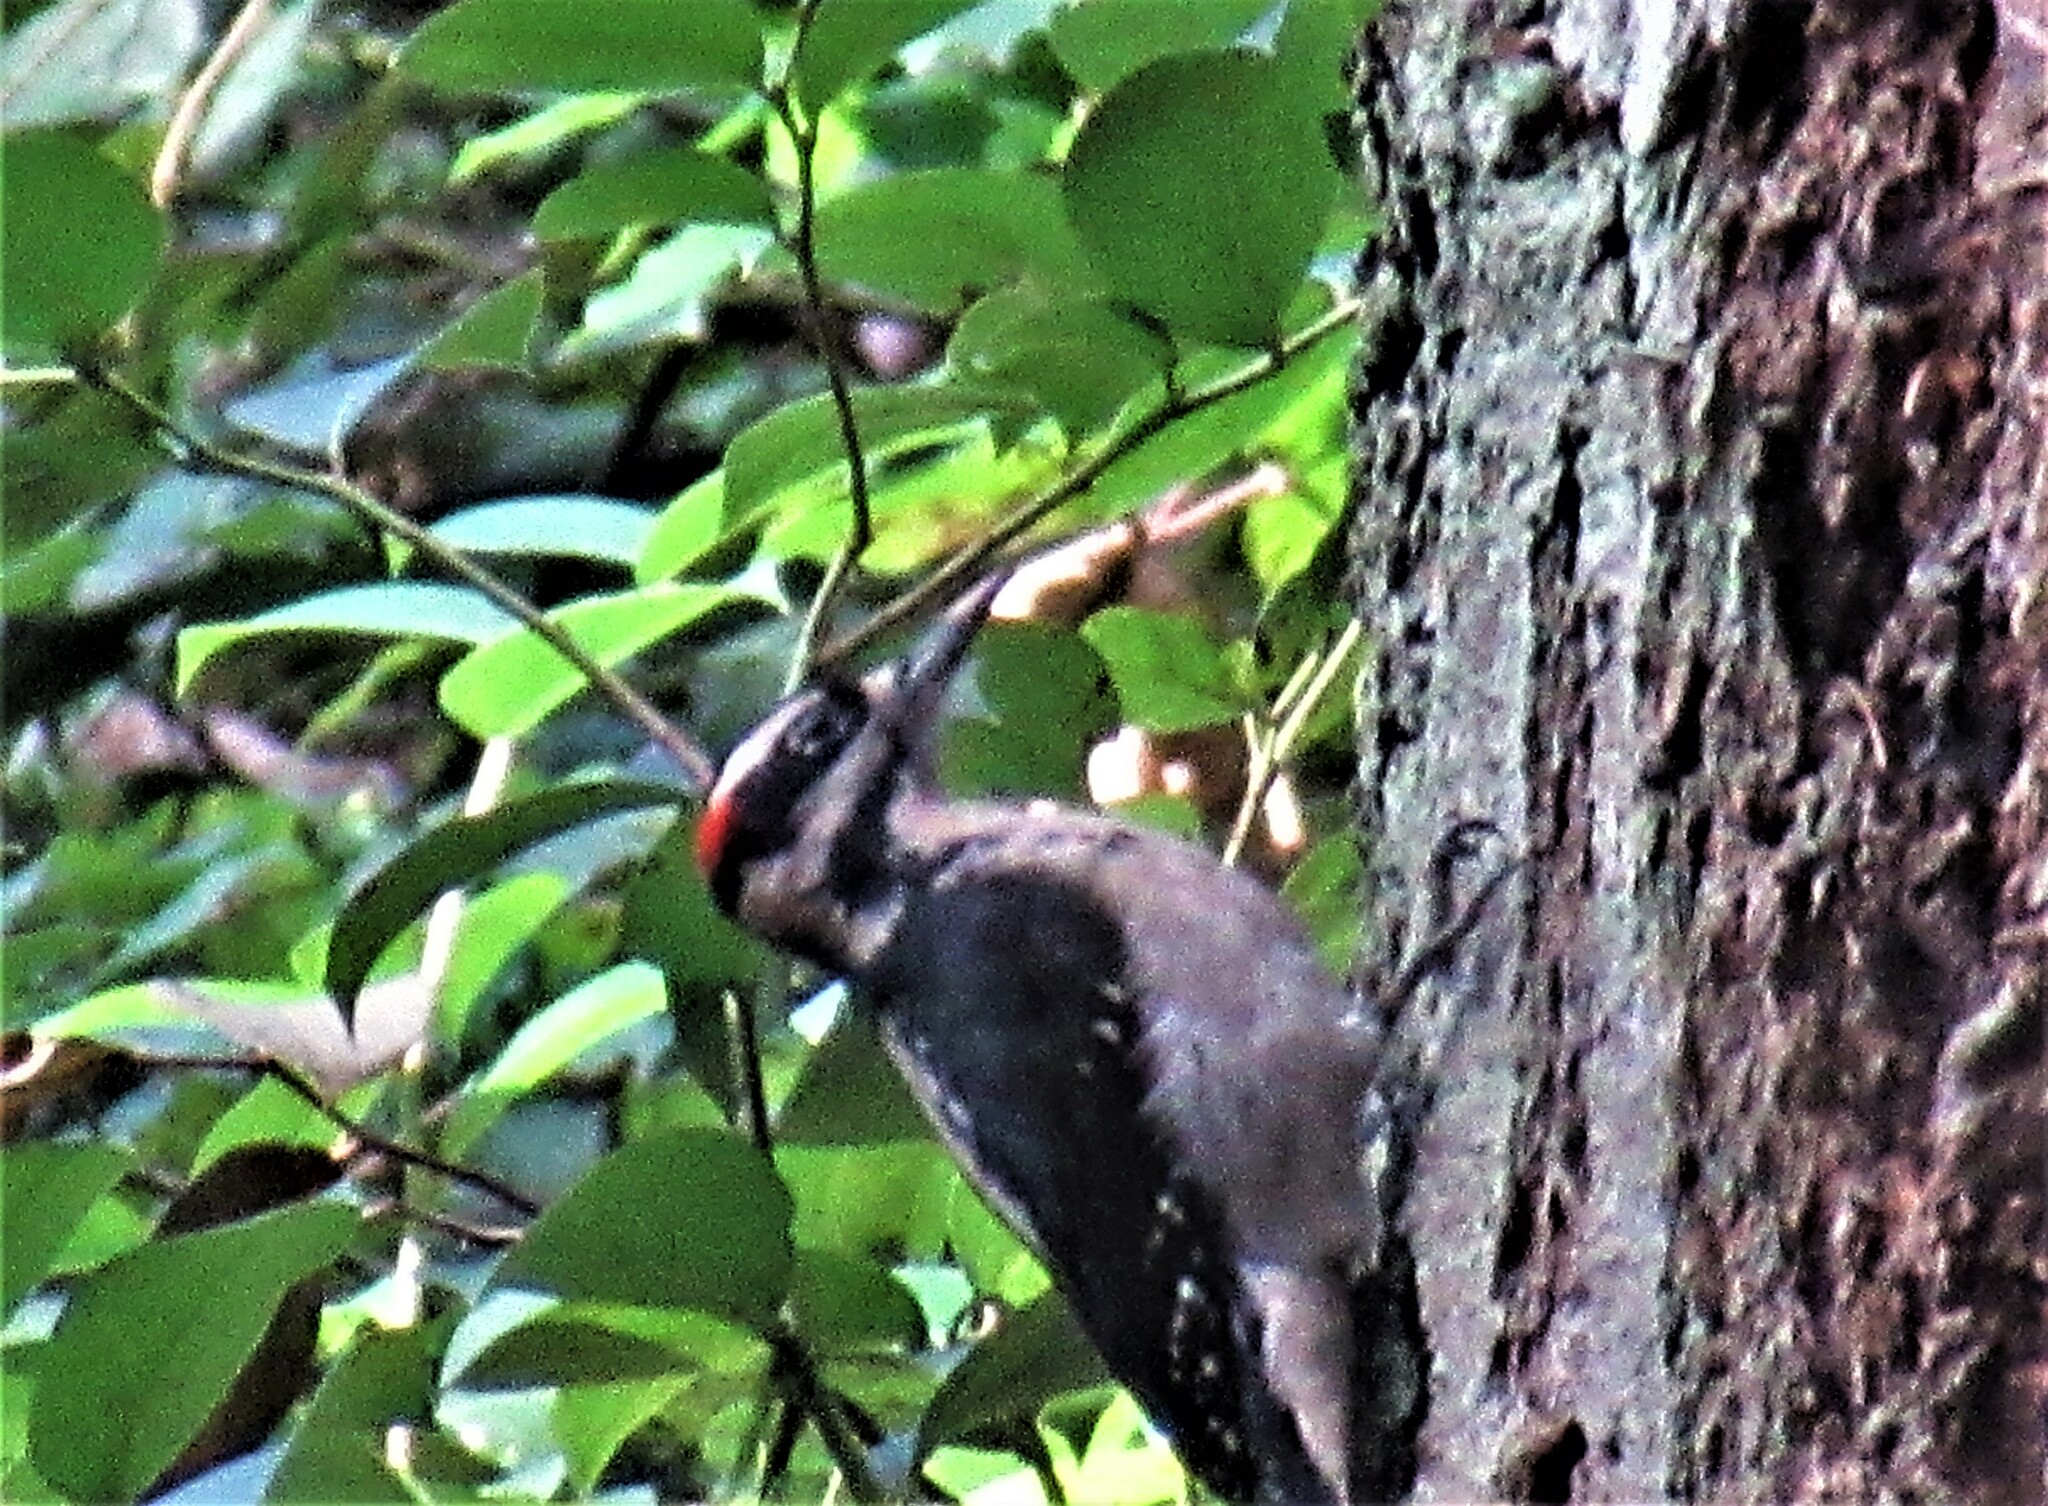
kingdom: Animalia
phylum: Chordata
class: Aves
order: Piciformes
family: Picidae
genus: Leuconotopicus
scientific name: Leuconotopicus villosus
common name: Hairy woodpecker
